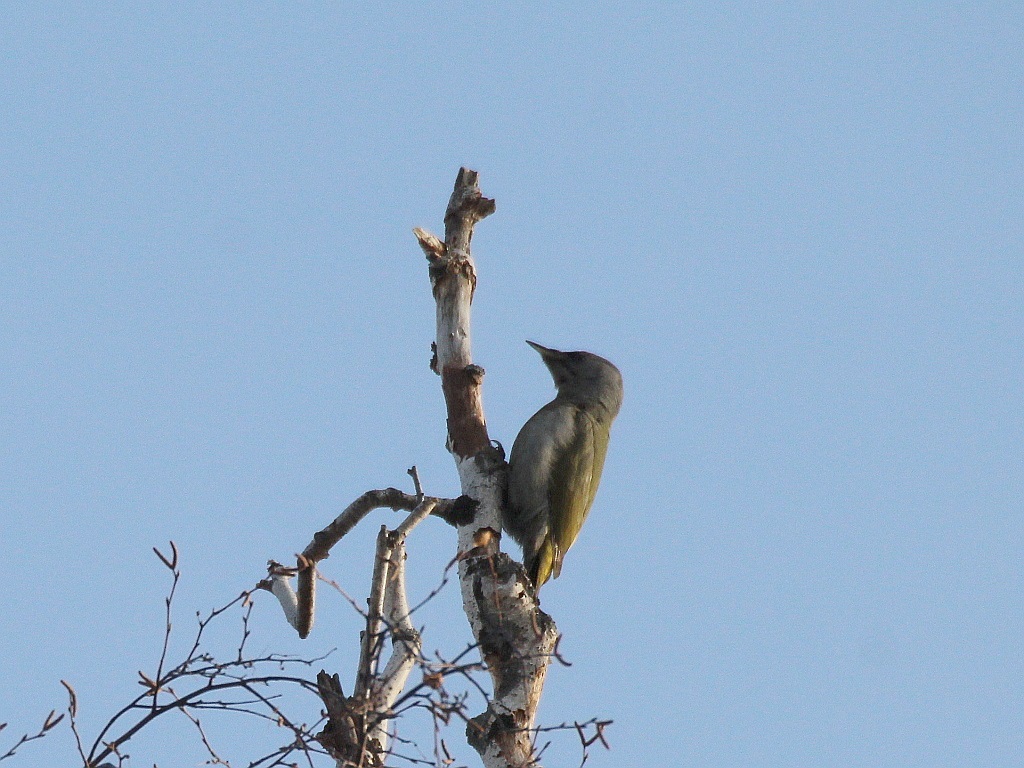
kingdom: Animalia
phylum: Chordata
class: Aves
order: Piciformes
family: Picidae
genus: Picus
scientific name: Picus canus
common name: Grey-headed woodpecker
